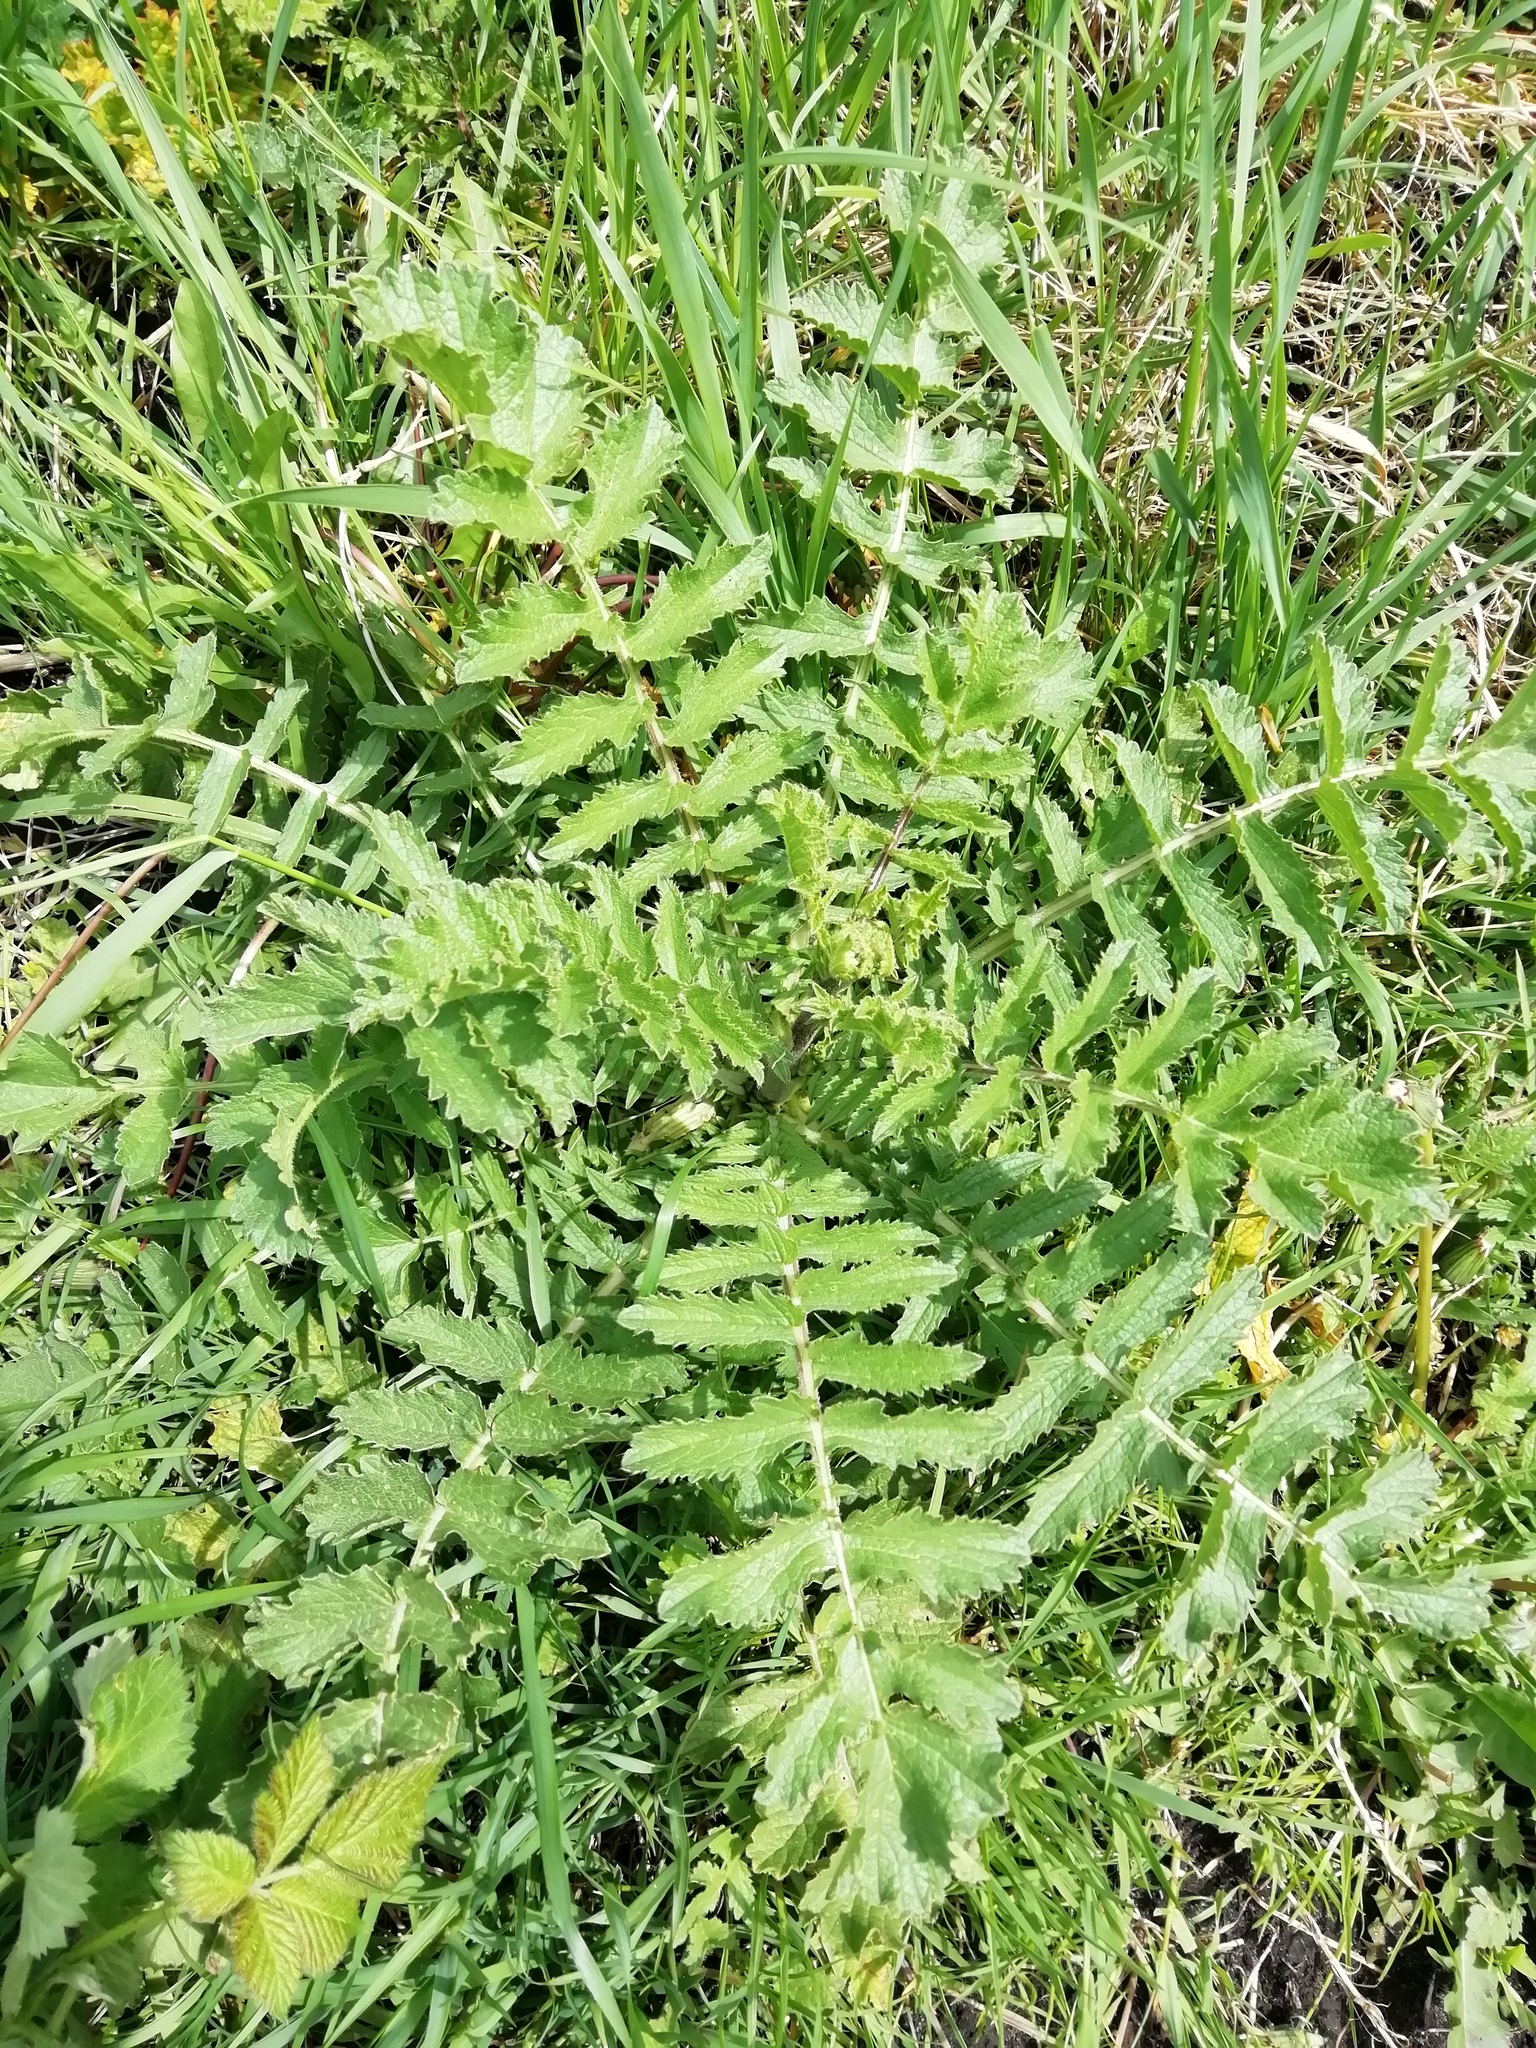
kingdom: Plantae
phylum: Tracheophyta
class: Magnoliopsida
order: Brassicales
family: Brassicaceae
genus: Raphanus
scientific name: Raphanus raphanistrum
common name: Wild radish
